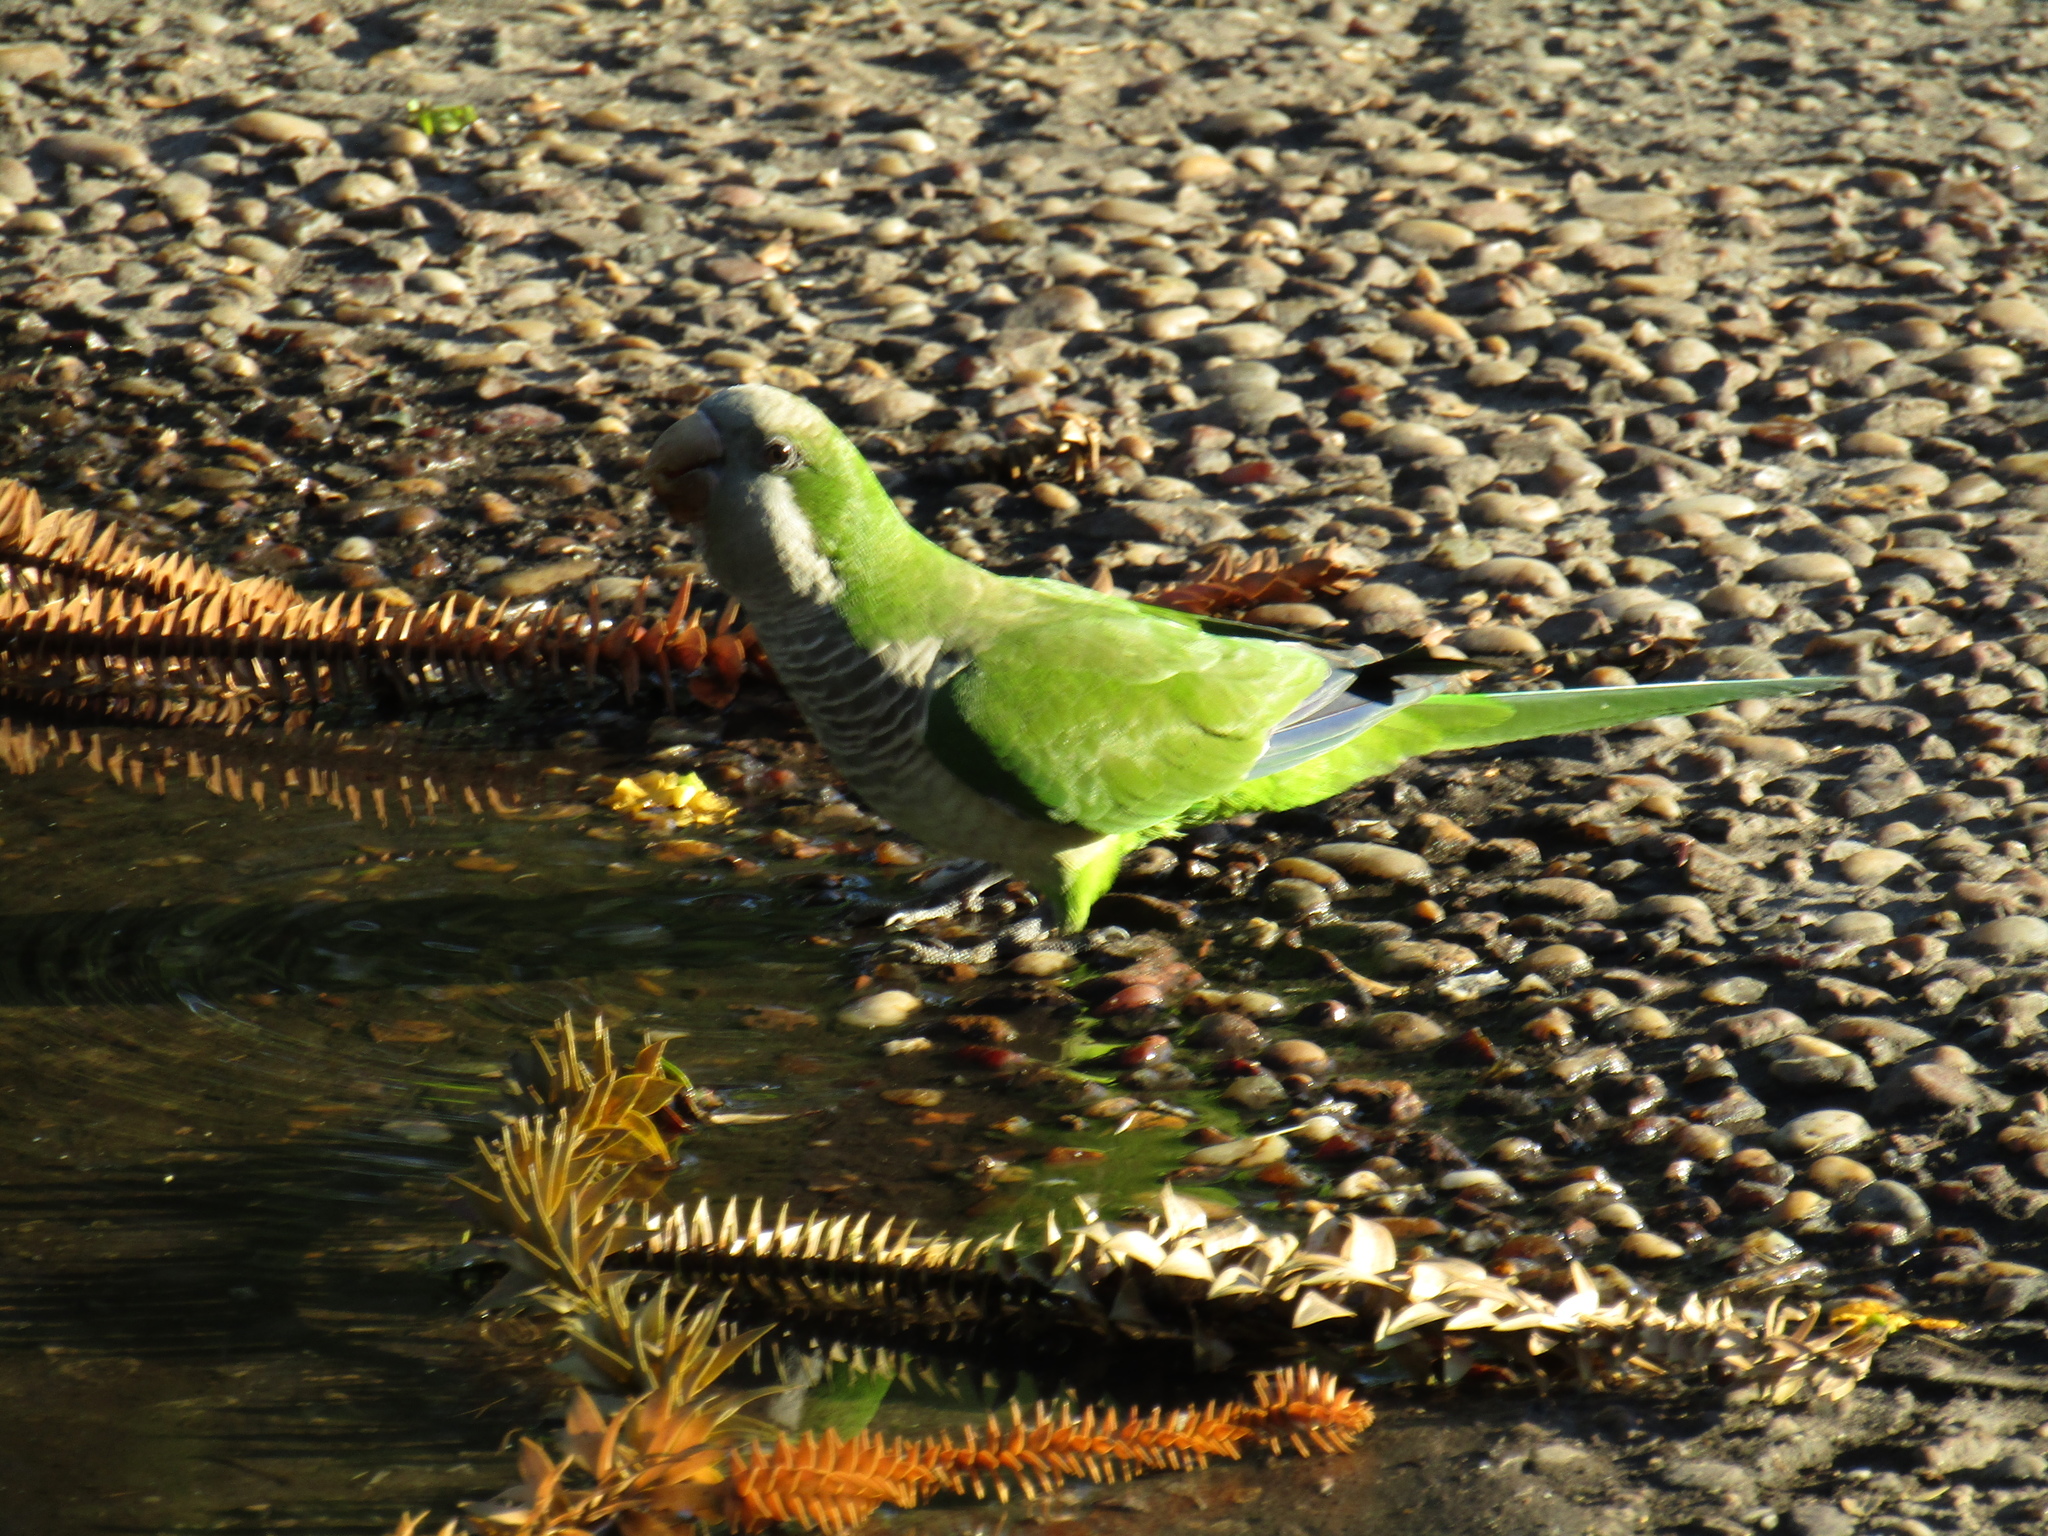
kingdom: Animalia
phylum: Chordata
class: Aves
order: Psittaciformes
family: Psittacidae
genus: Myiopsitta
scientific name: Myiopsitta monachus
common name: Monk parakeet
